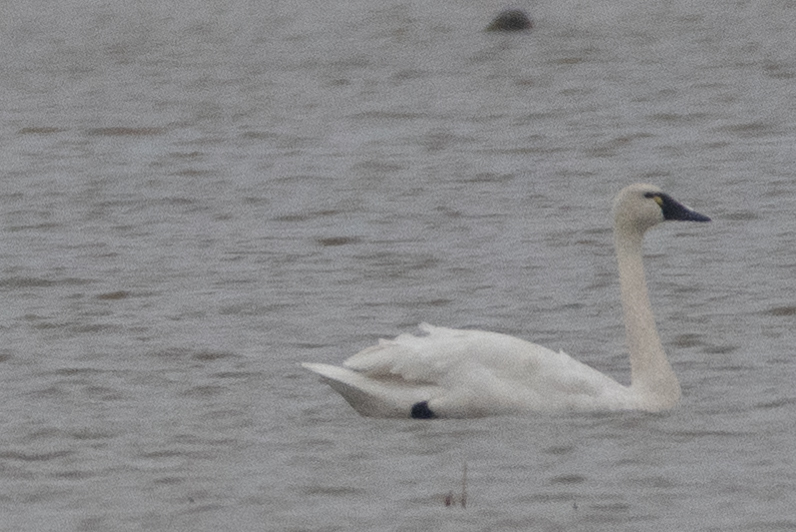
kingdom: Animalia
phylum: Chordata
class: Aves
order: Anseriformes
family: Anatidae
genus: Cygnus
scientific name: Cygnus columbianus
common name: Tundra swan
